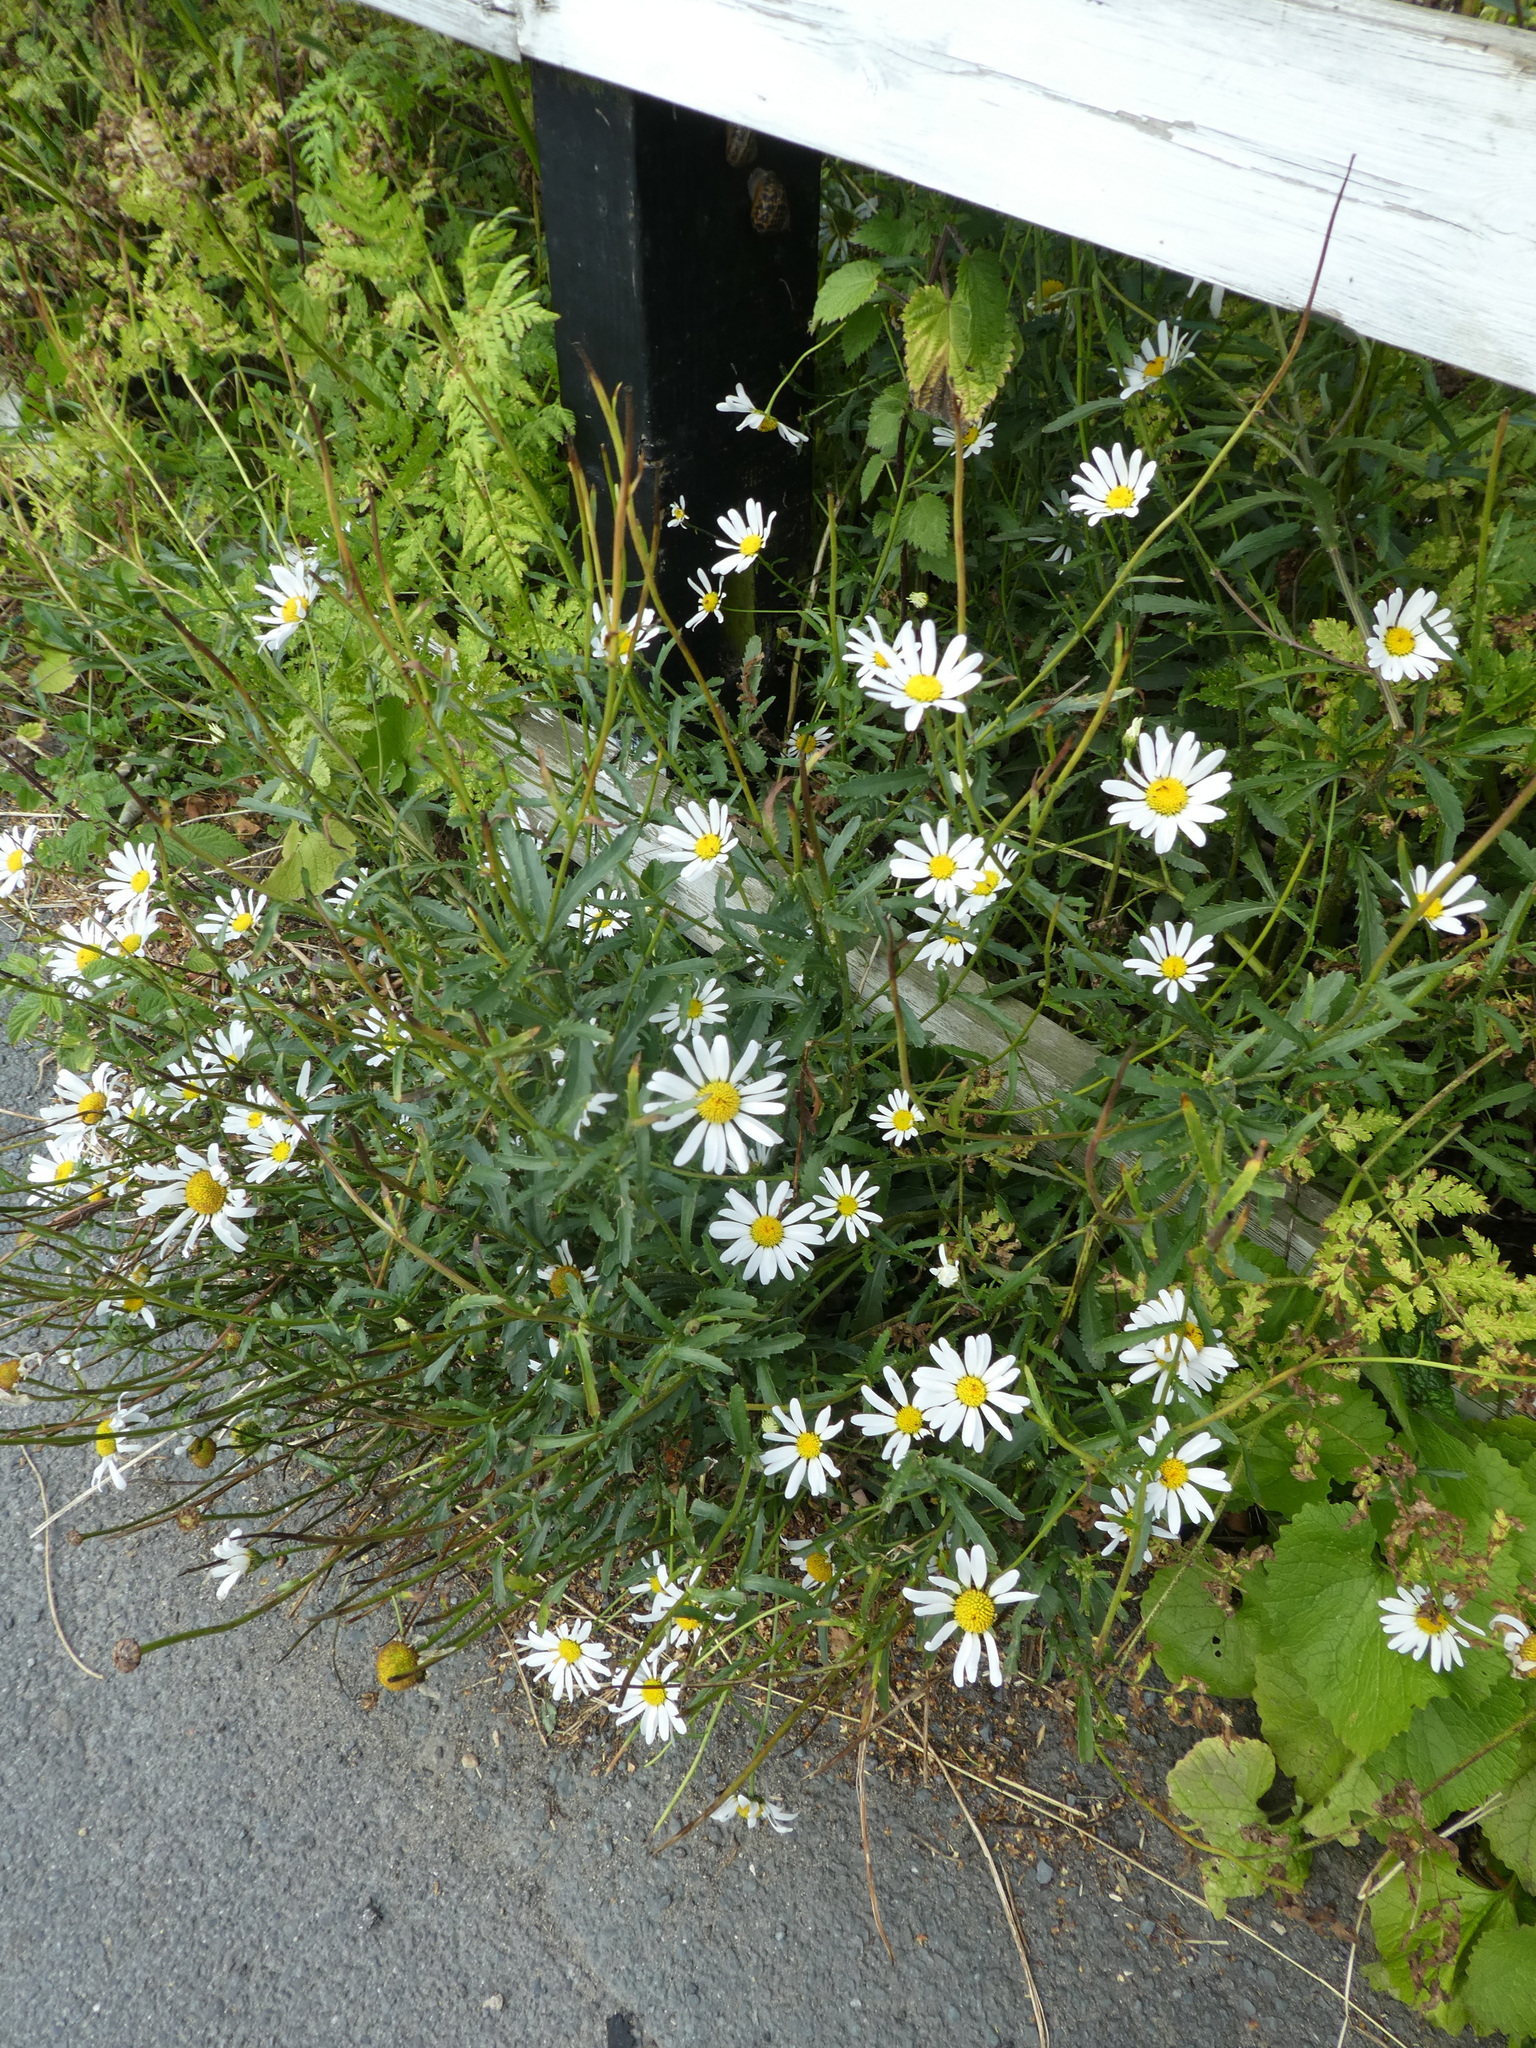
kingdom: Plantae
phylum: Tracheophyta
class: Magnoliopsida
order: Asterales
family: Asteraceae
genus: Leucanthemum
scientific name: Leucanthemum vulgare
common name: Oxeye daisy
